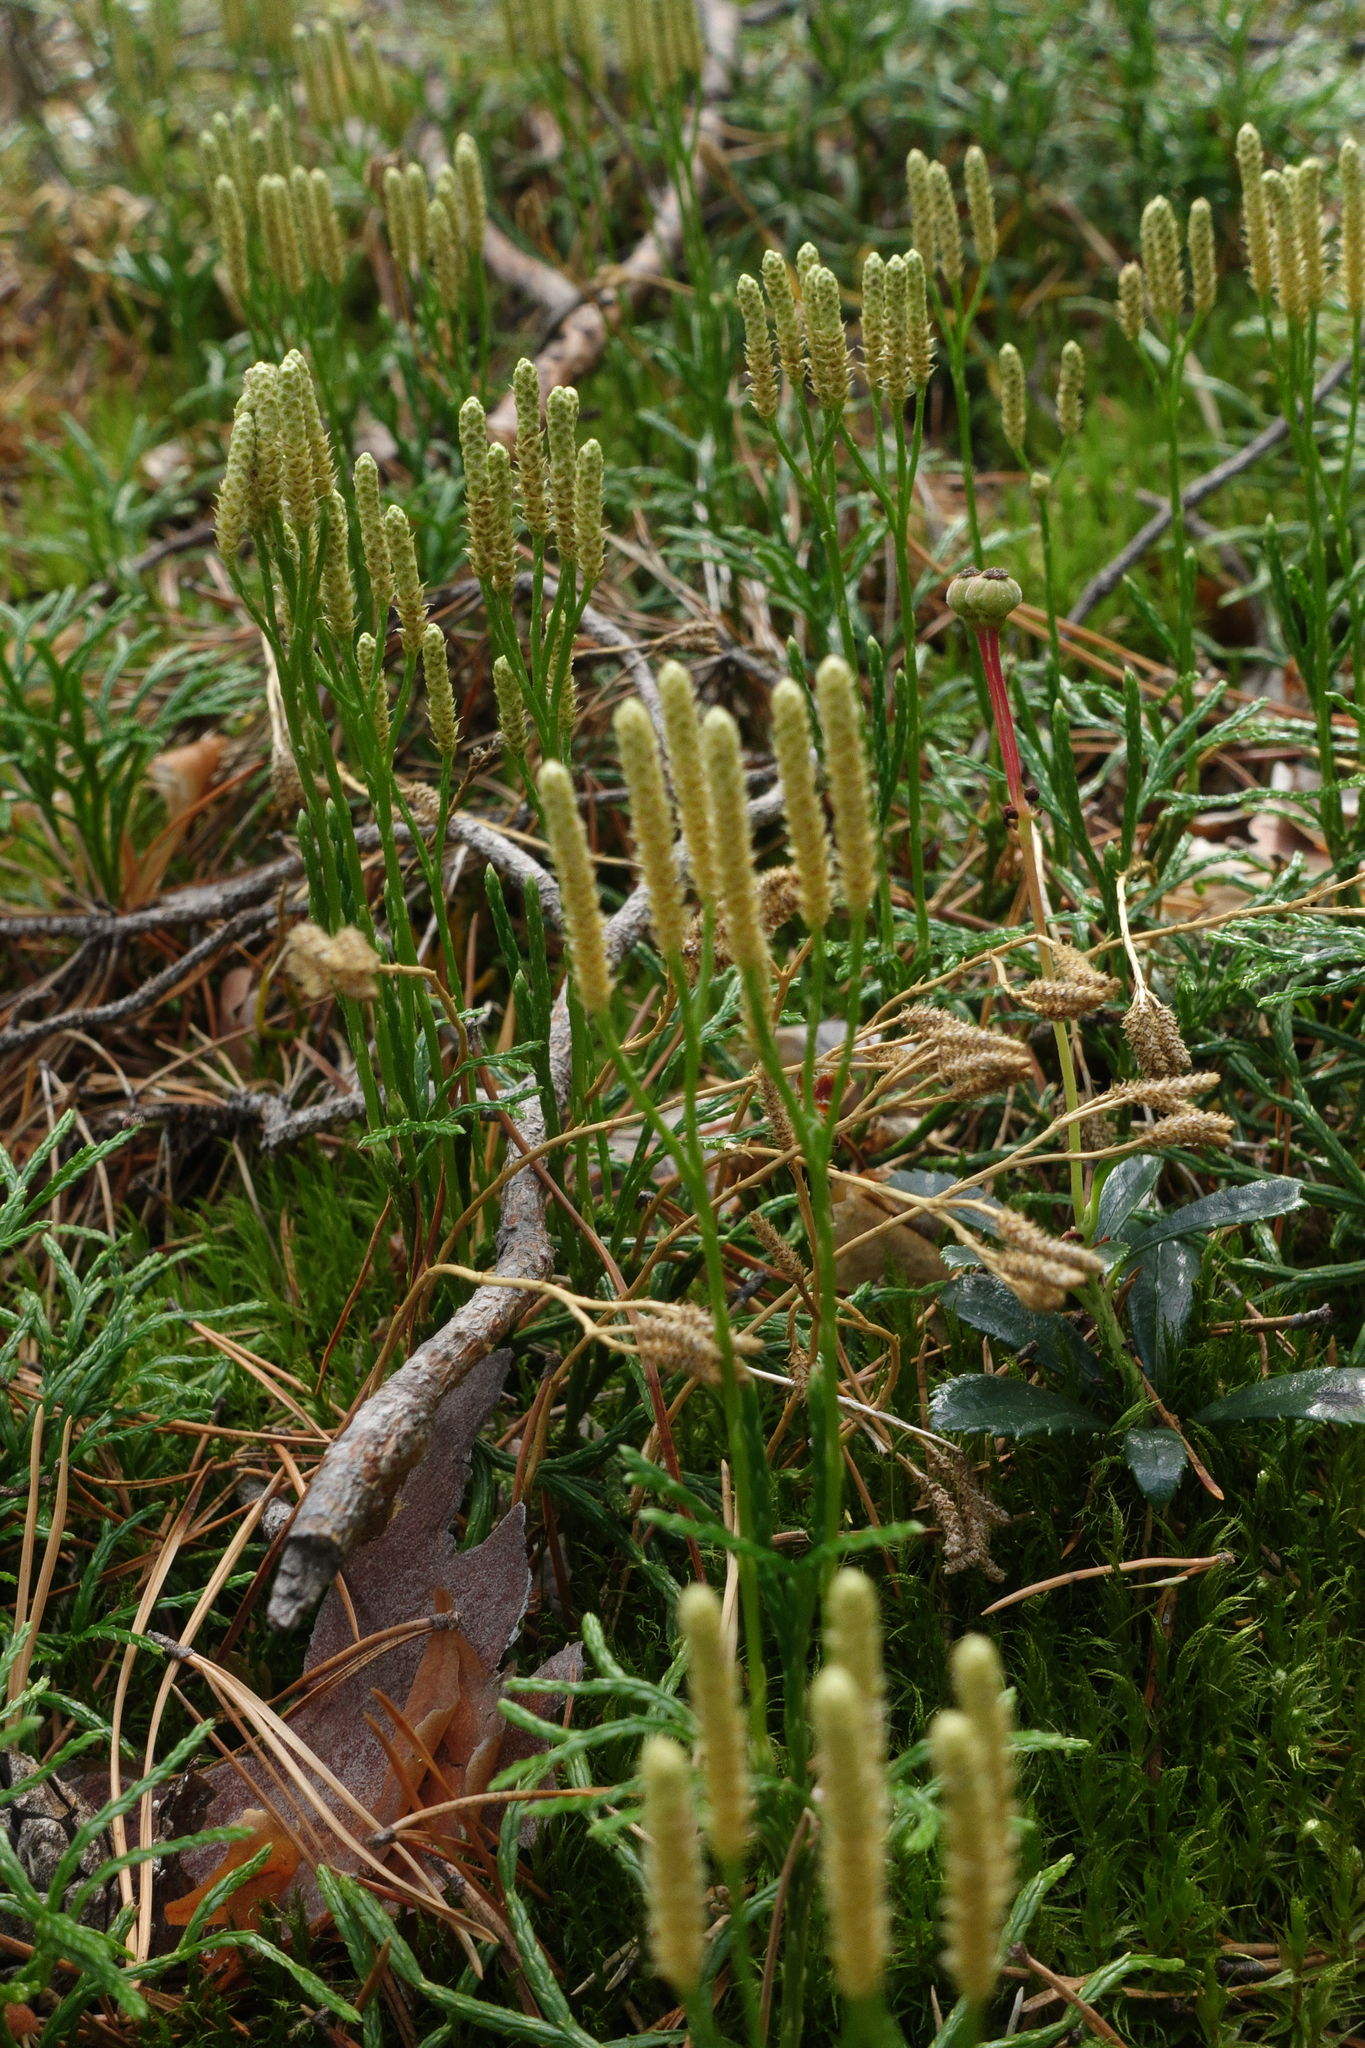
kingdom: Plantae
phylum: Tracheophyta
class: Lycopodiopsida
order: Lycopodiales
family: Lycopodiaceae
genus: Diphasiastrum
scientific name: Diphasiastrum complanatum
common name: Northern running-pine
